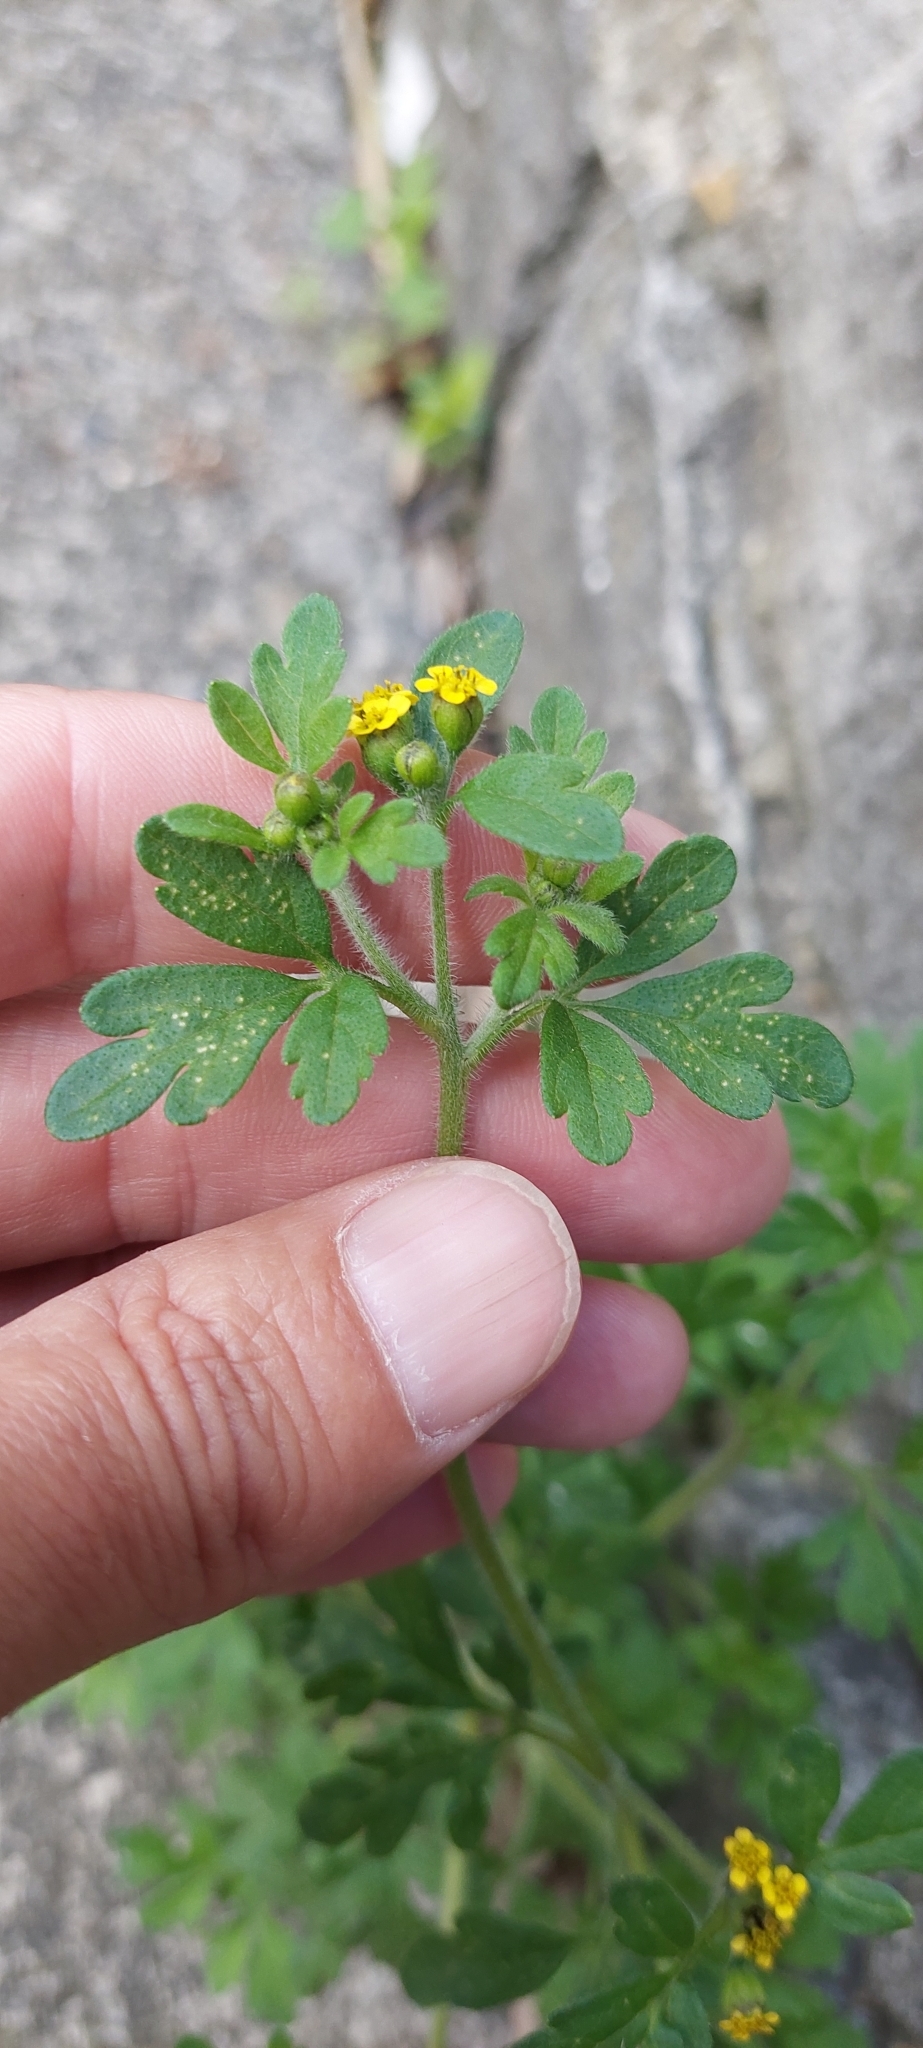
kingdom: Plantae
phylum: Tracheophyta
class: Magnoliopsida
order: Asterales
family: Asteraceae
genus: Villanova
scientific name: Villanova oppositifolia
